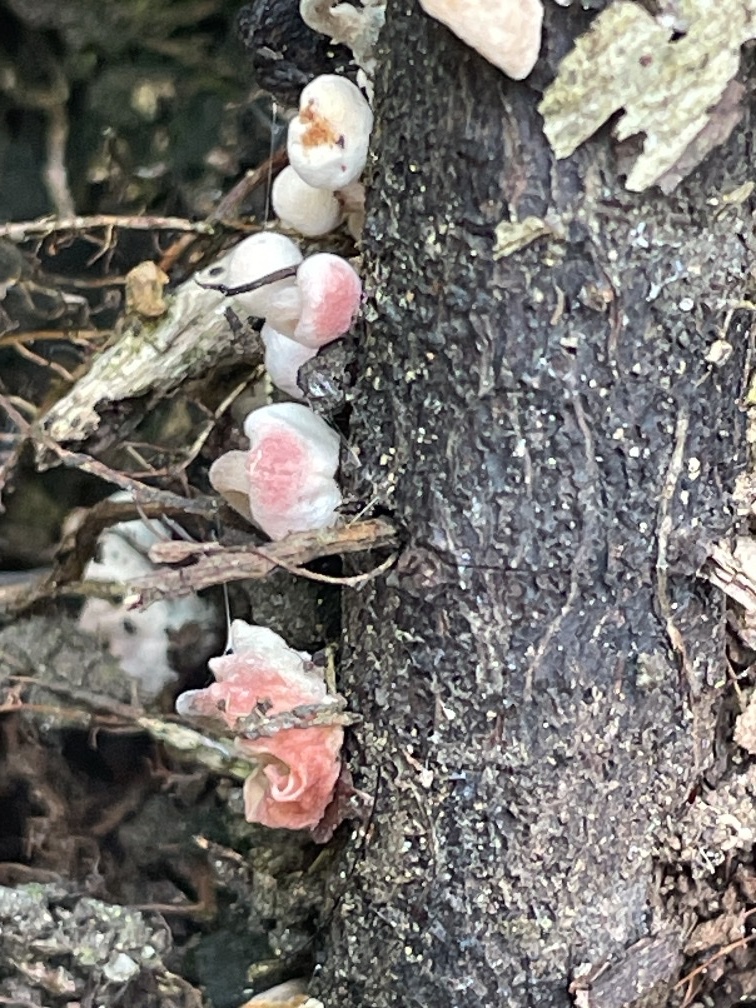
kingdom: Fungi
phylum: Basidiomycota
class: Agaricomycetes
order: Agaricales
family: Omphalotaceae
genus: Marasmiellus
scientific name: Marasmiellus candidus
